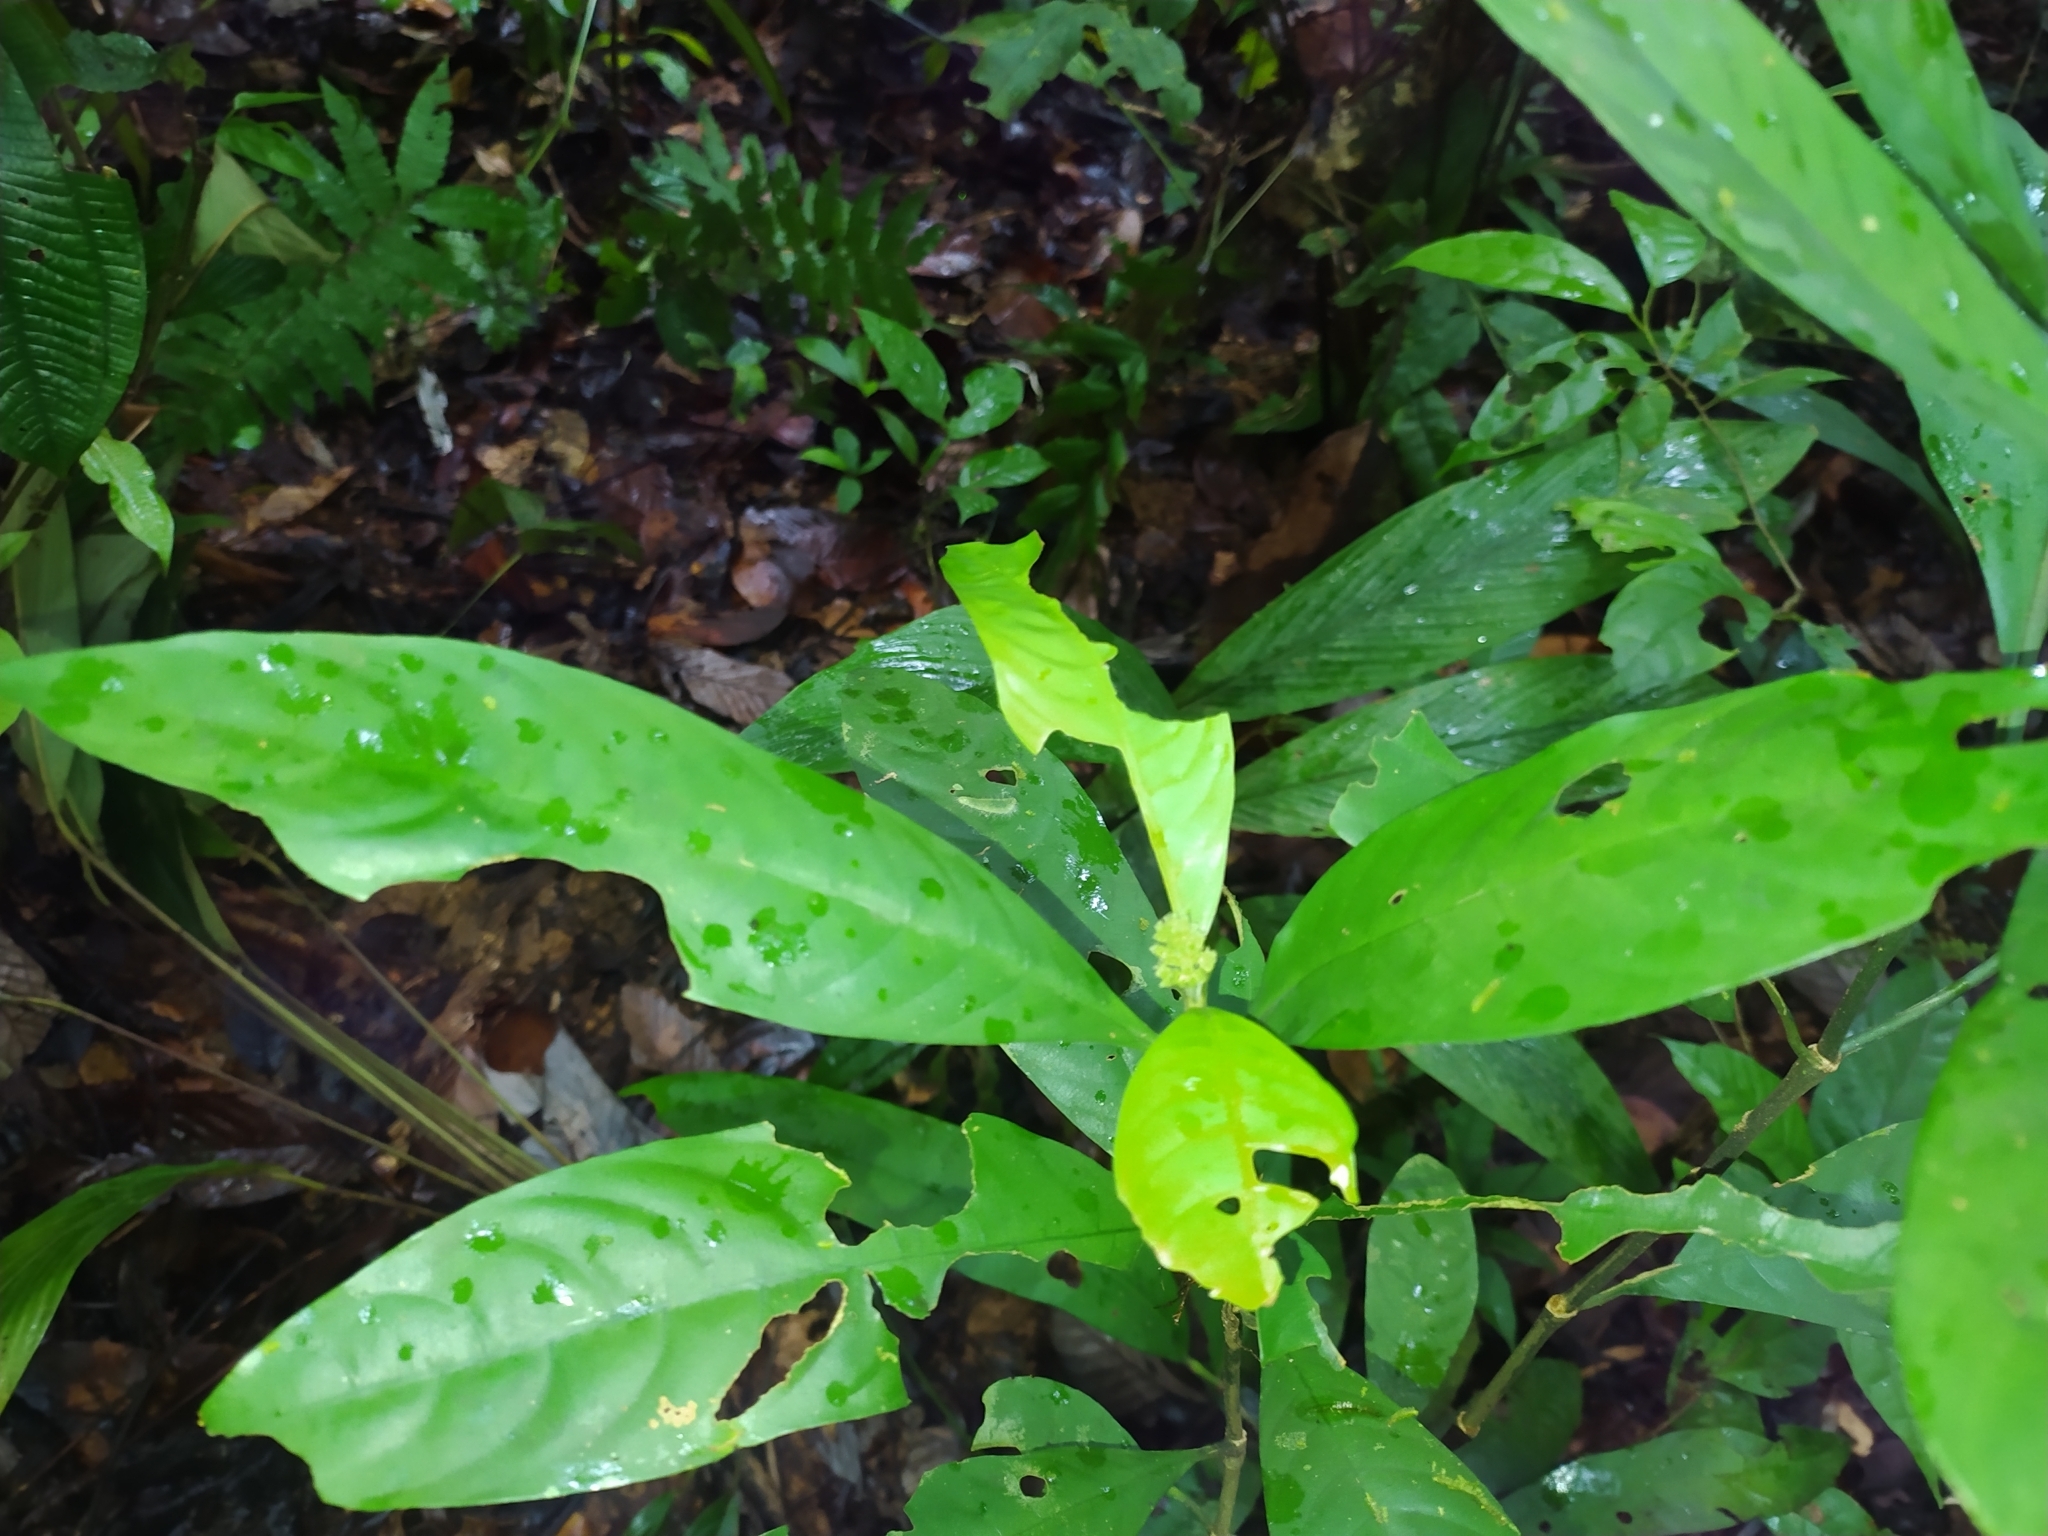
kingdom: Plantae
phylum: Tracheophyta
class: Magnoliopsida
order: Gentianales
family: Rubiaceae
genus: Palicourea
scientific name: Palicourea racemosa
